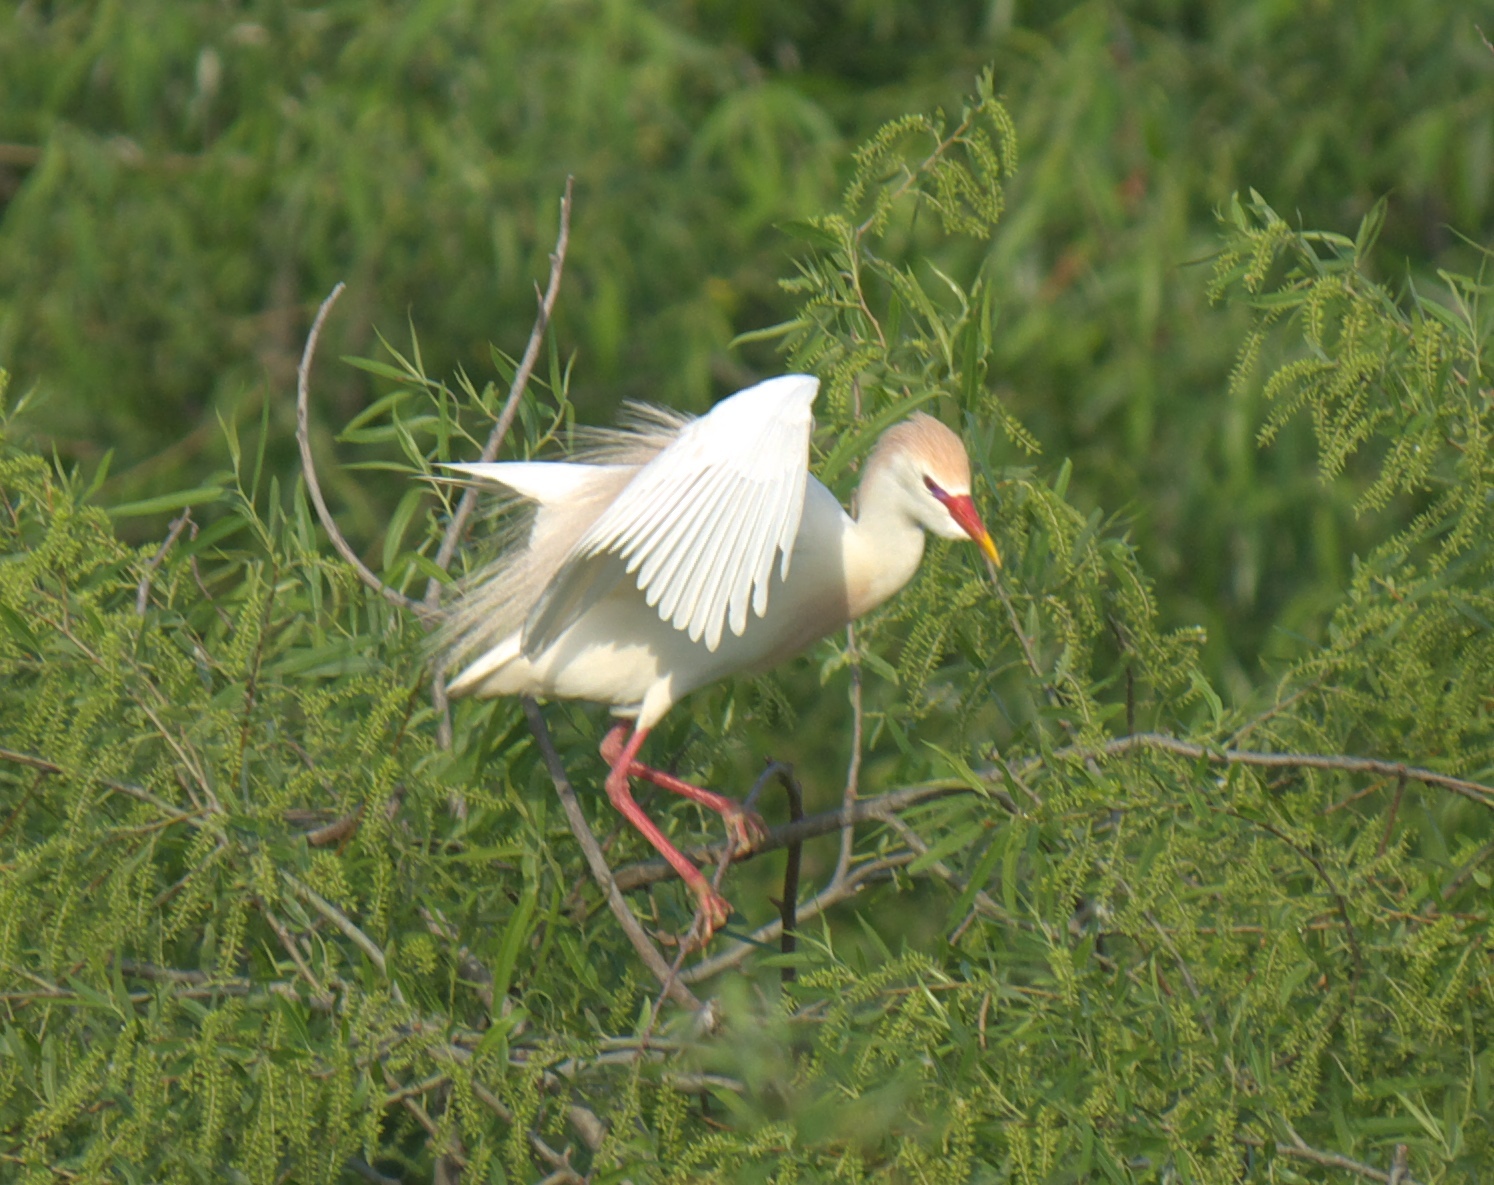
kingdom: Animalia
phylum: Chordata
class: Aves
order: Pelecaniformes
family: Ardeidae
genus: Bubulcus
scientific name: Bubulcus ibis
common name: Cattle egret
